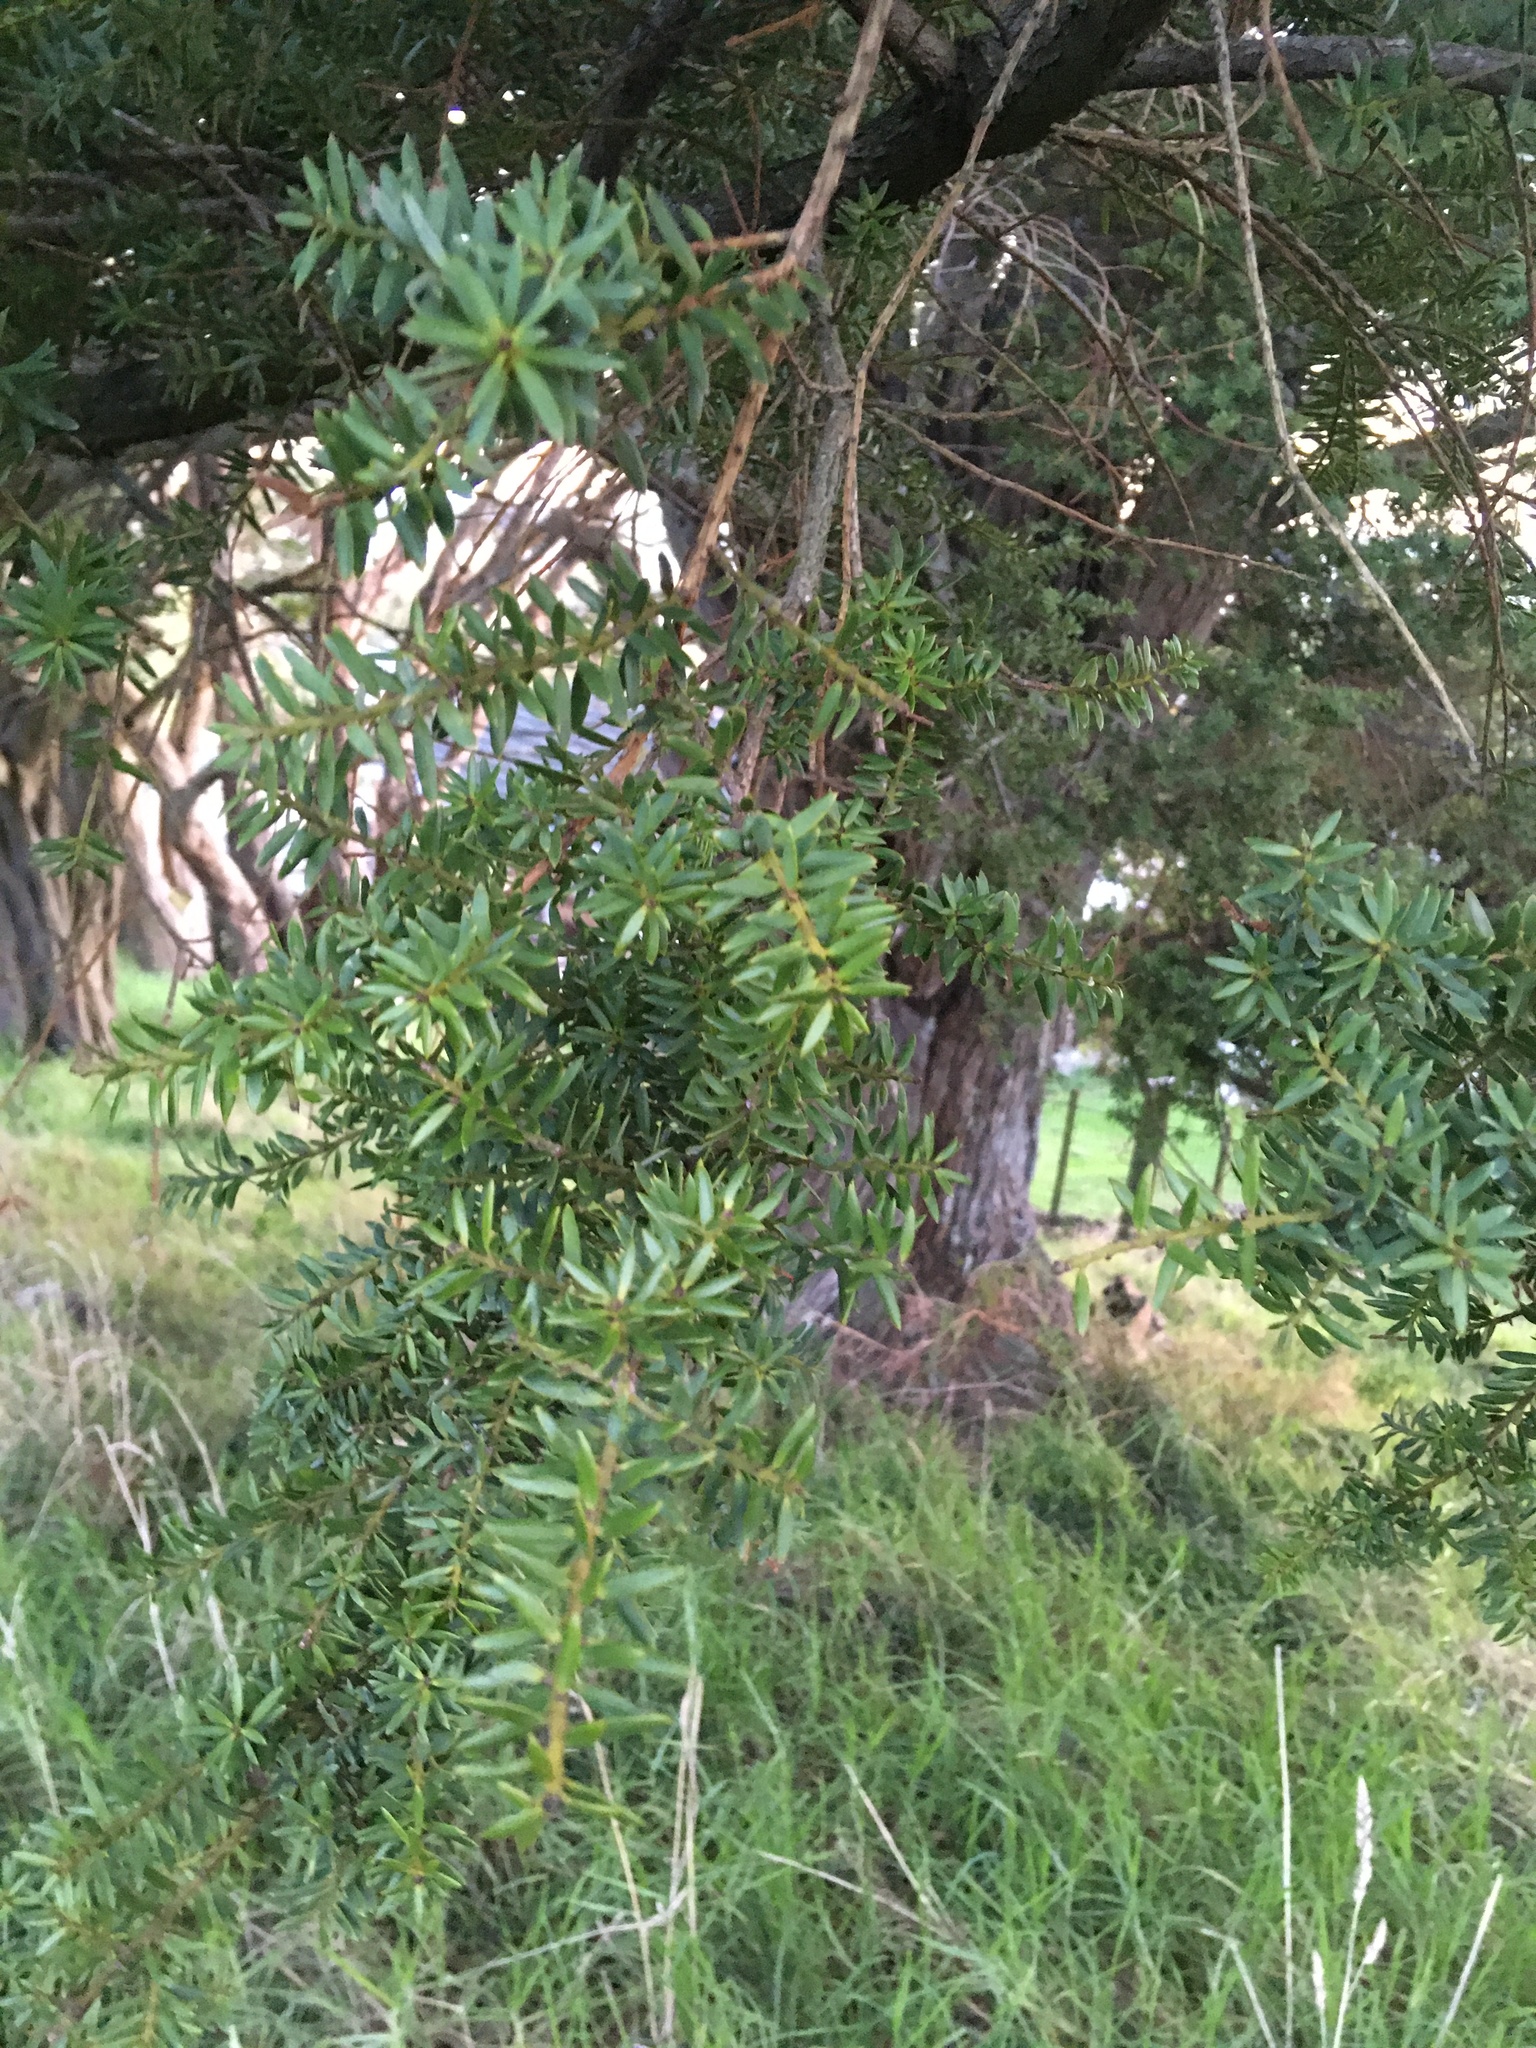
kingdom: Plantae
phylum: Tracheophyta
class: Pinopsida
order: Pinales
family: Podocarpaceae
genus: Podocarpus
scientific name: Podocarpus totara
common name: Totara
